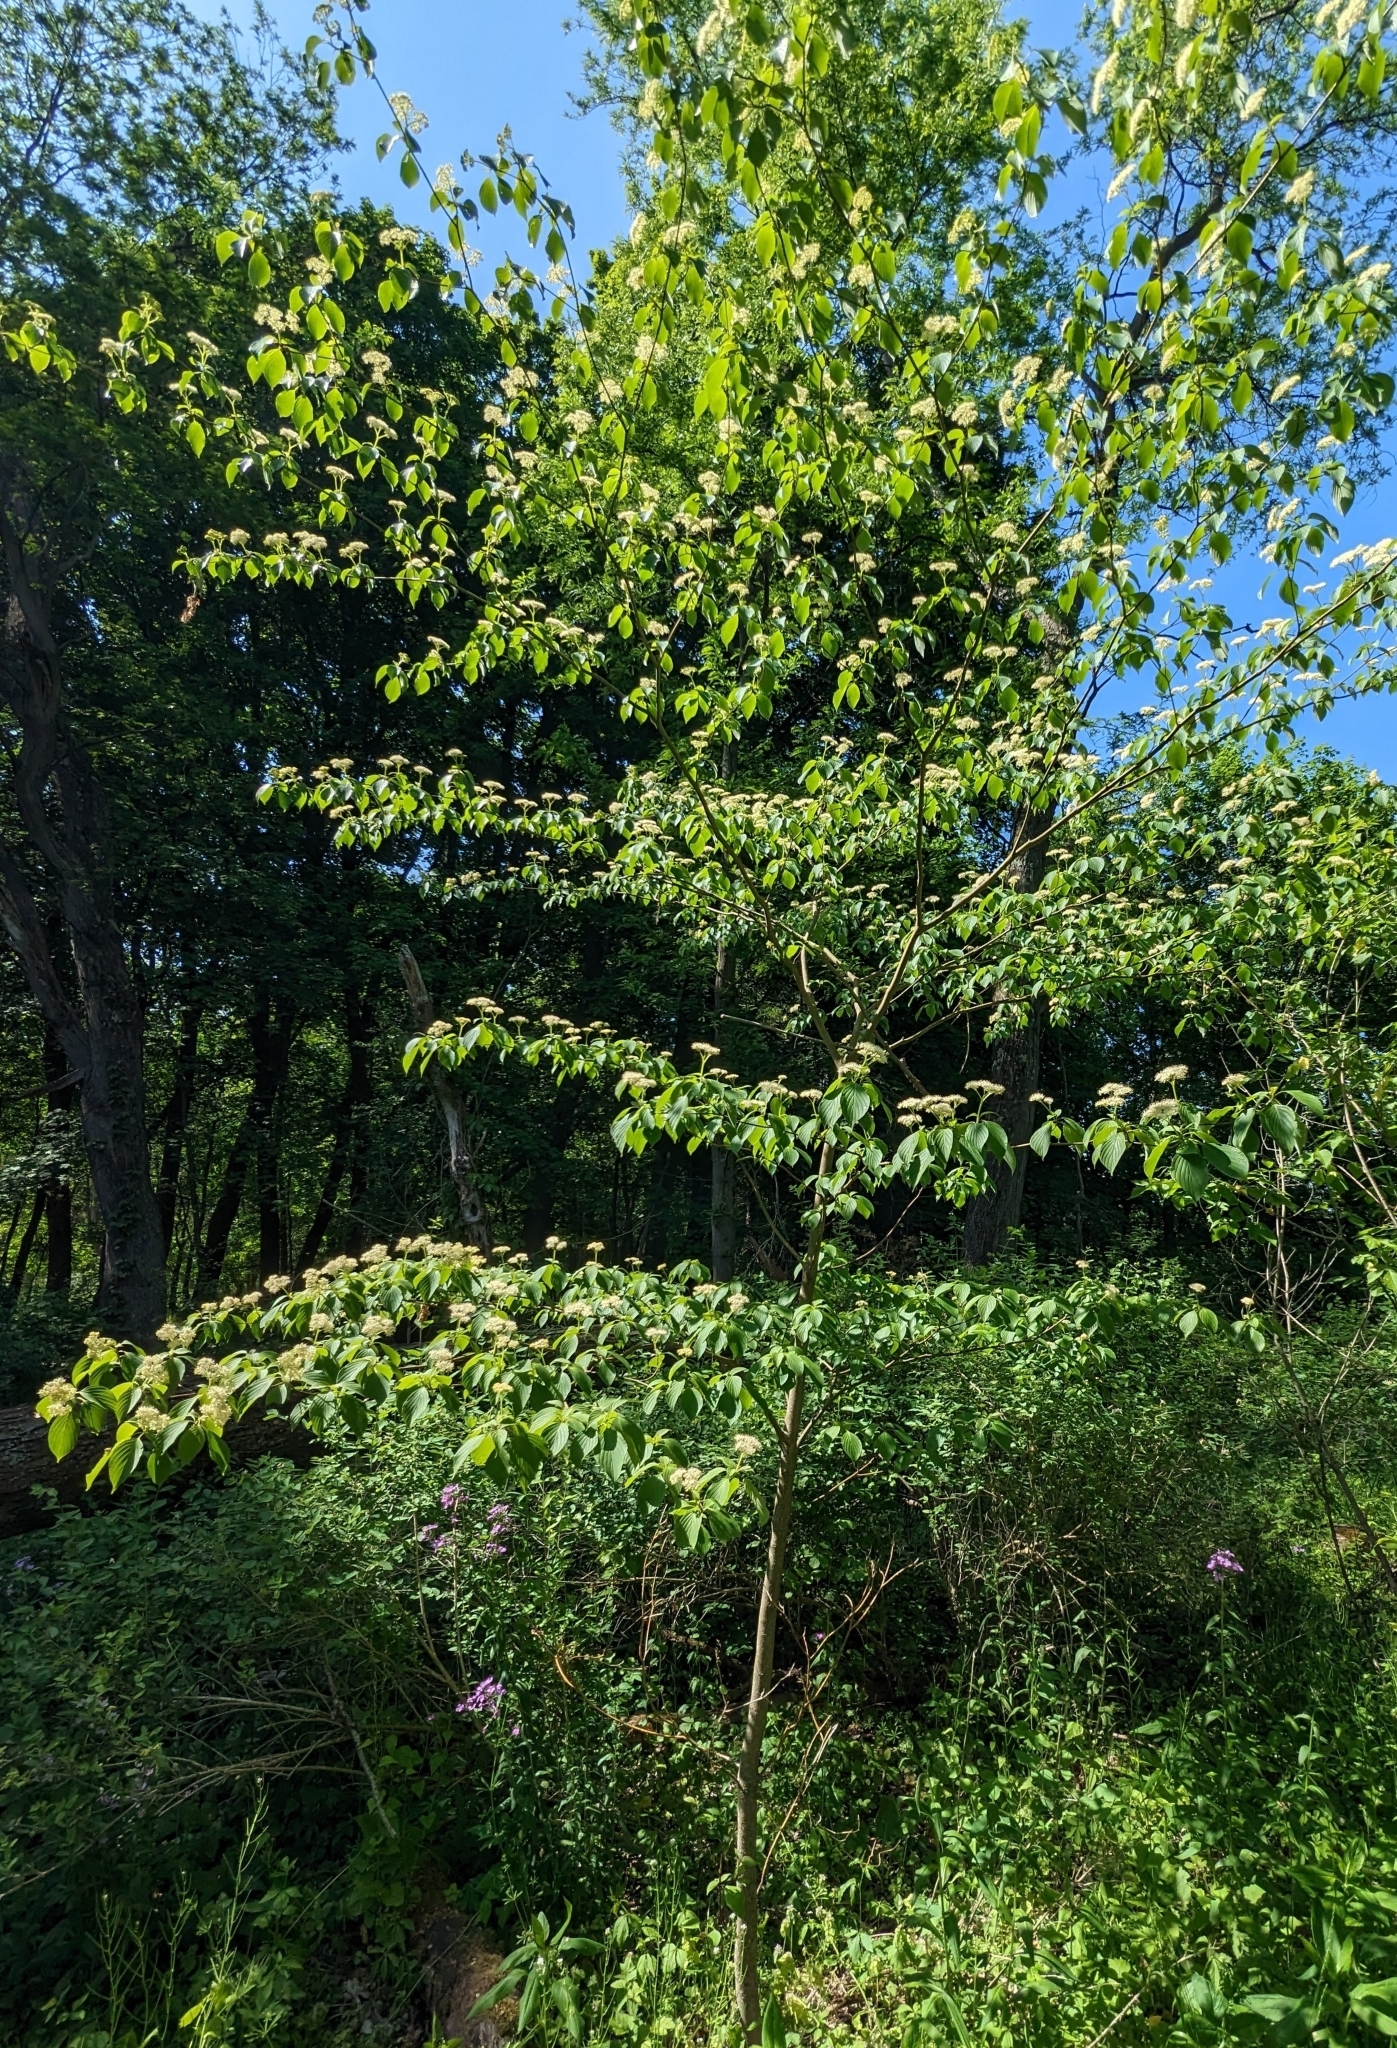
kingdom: Plantae
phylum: Tracheophyta
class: Magnoliopsida
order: Cornales
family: Cornaceae
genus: Cornus
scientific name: Cornus alternifolia
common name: Pagoda dogwood
